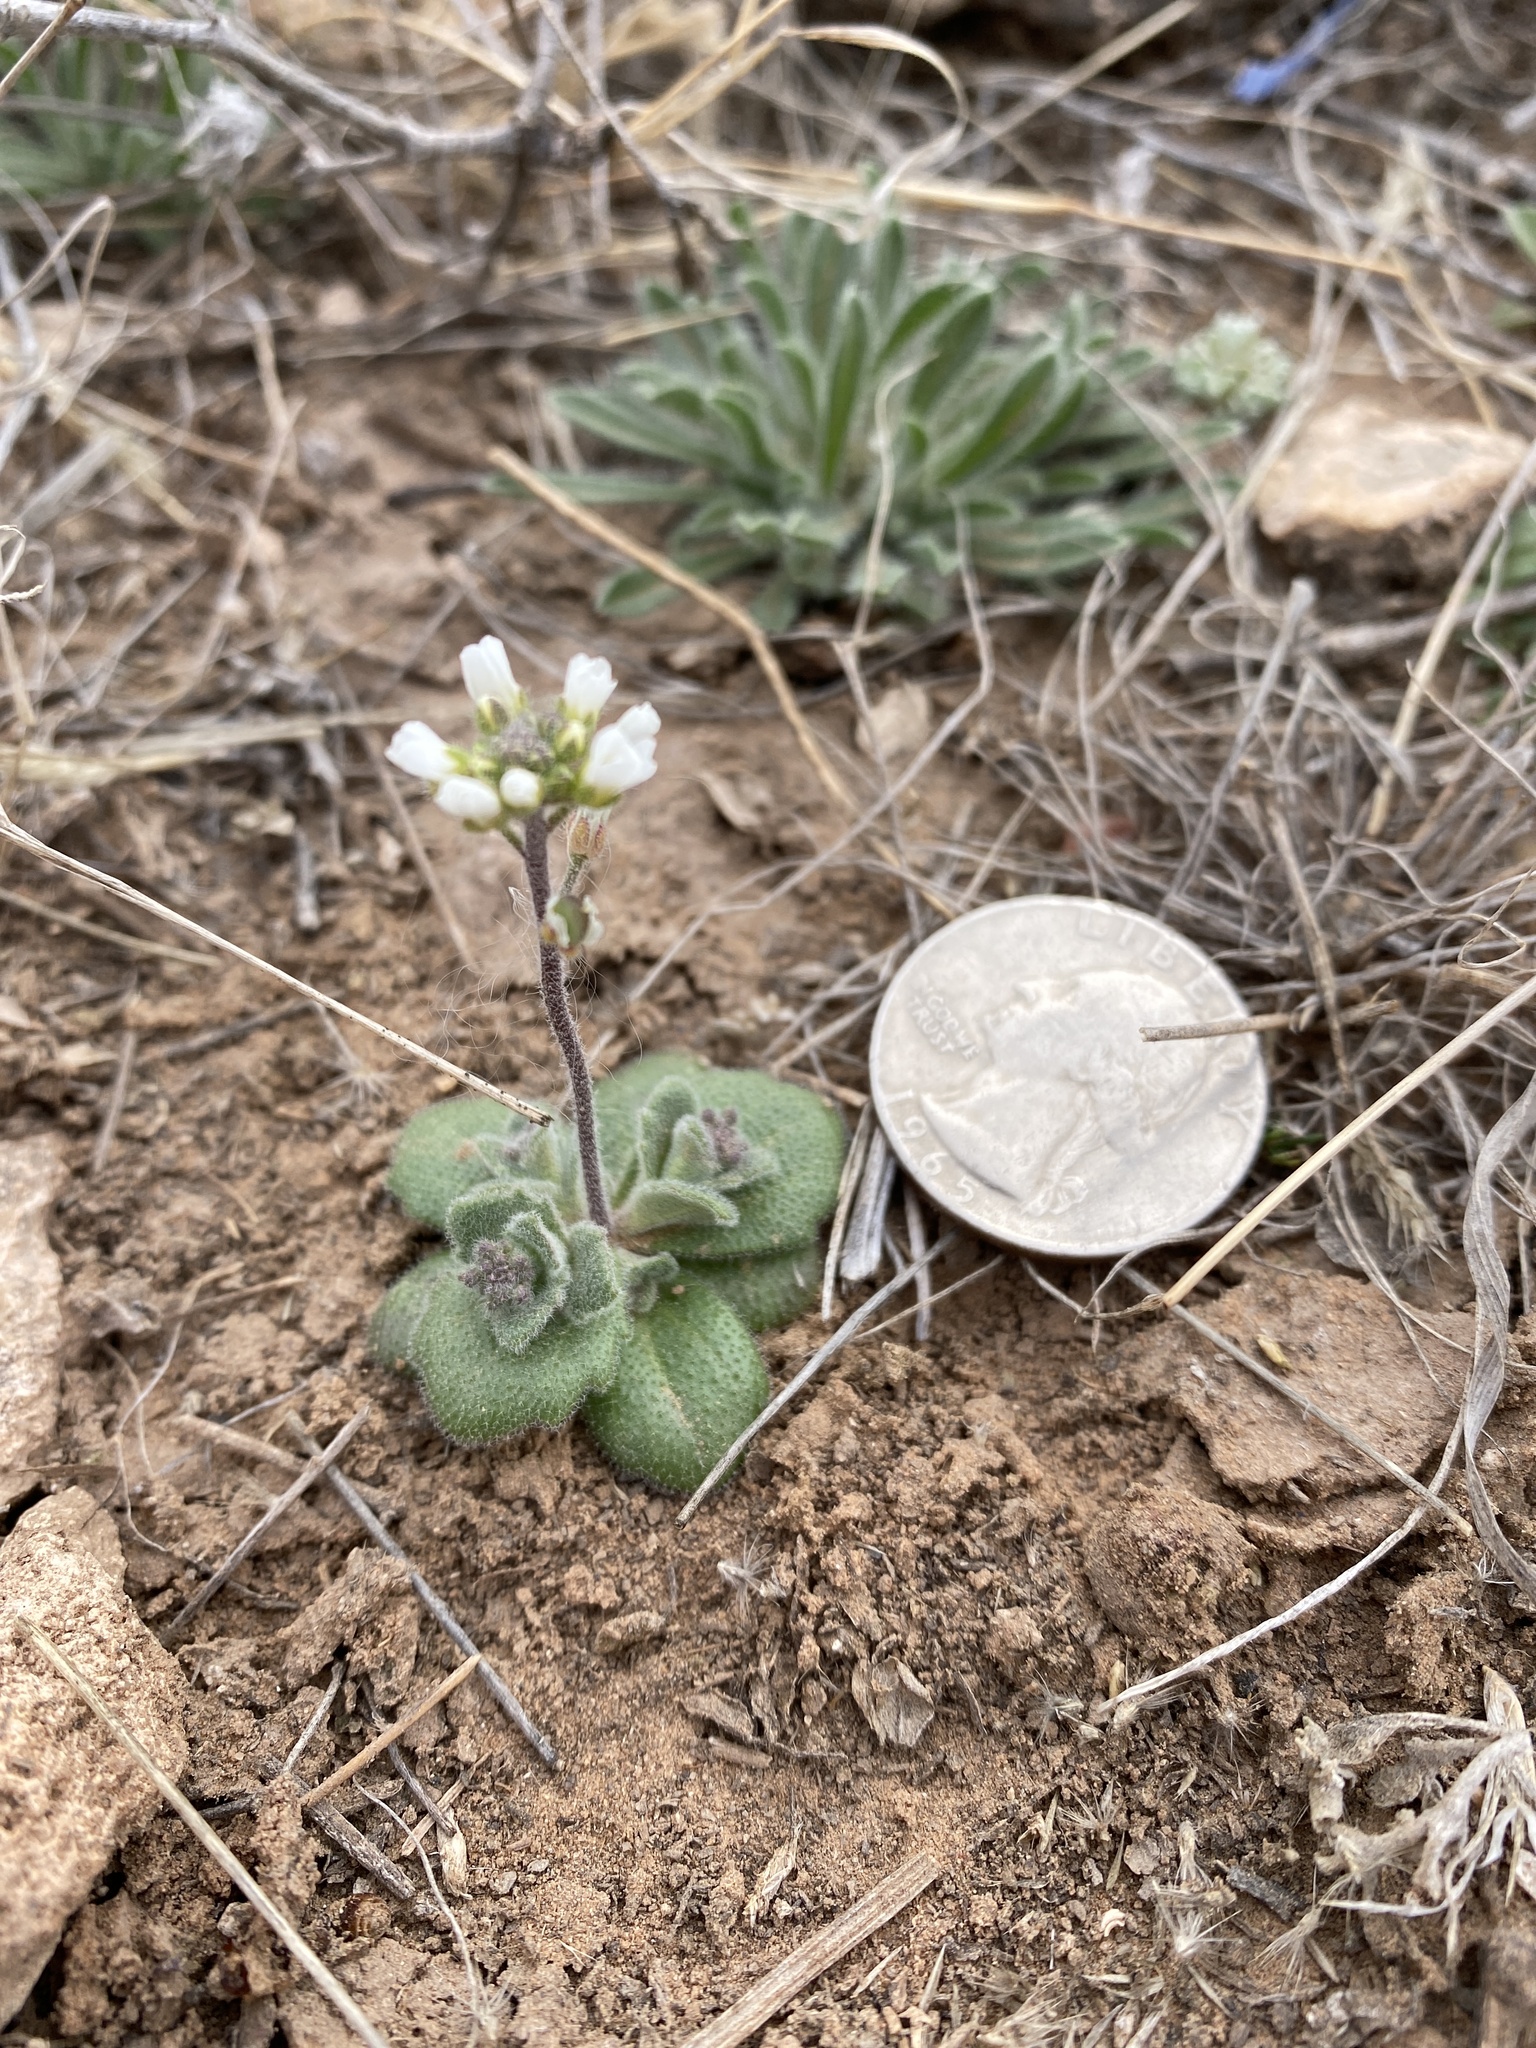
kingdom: Plantae
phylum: Tracheophyta
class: Magnoliopsida
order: Brassicales
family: Brassicaceae
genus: Tomostima
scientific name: Tomostima cuneifolia
